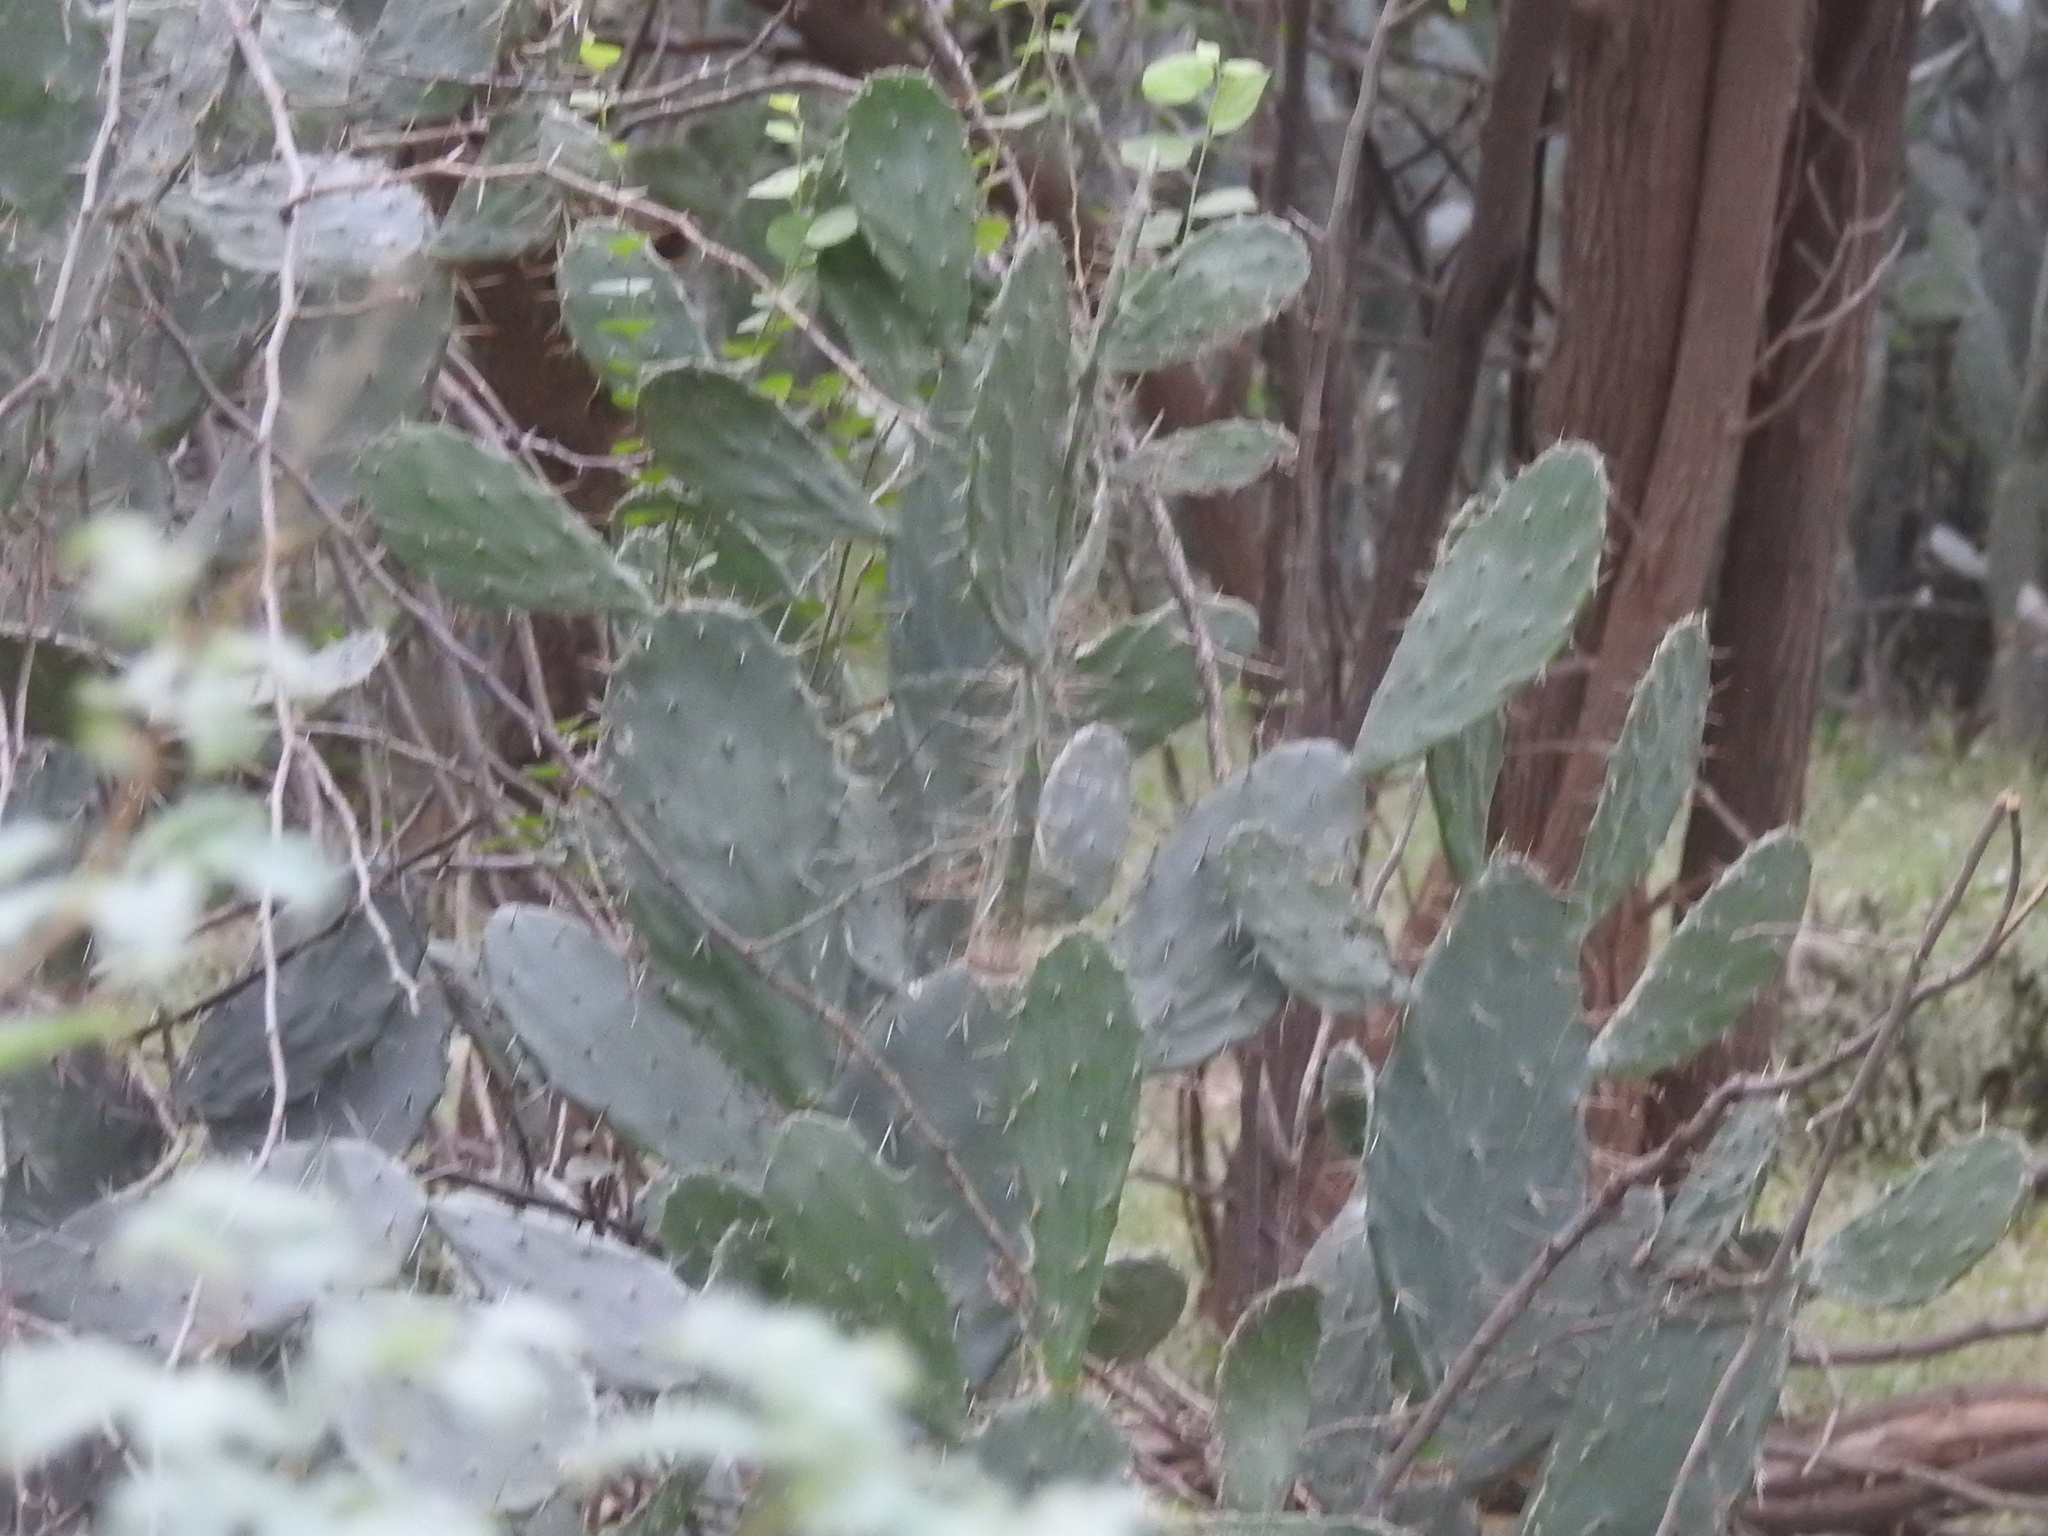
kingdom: Plantae
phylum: Tracheophyta
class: Magnoliopsida
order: Caryophyllales
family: Cactaceae
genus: Opuntia
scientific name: Opuntia dejecta
